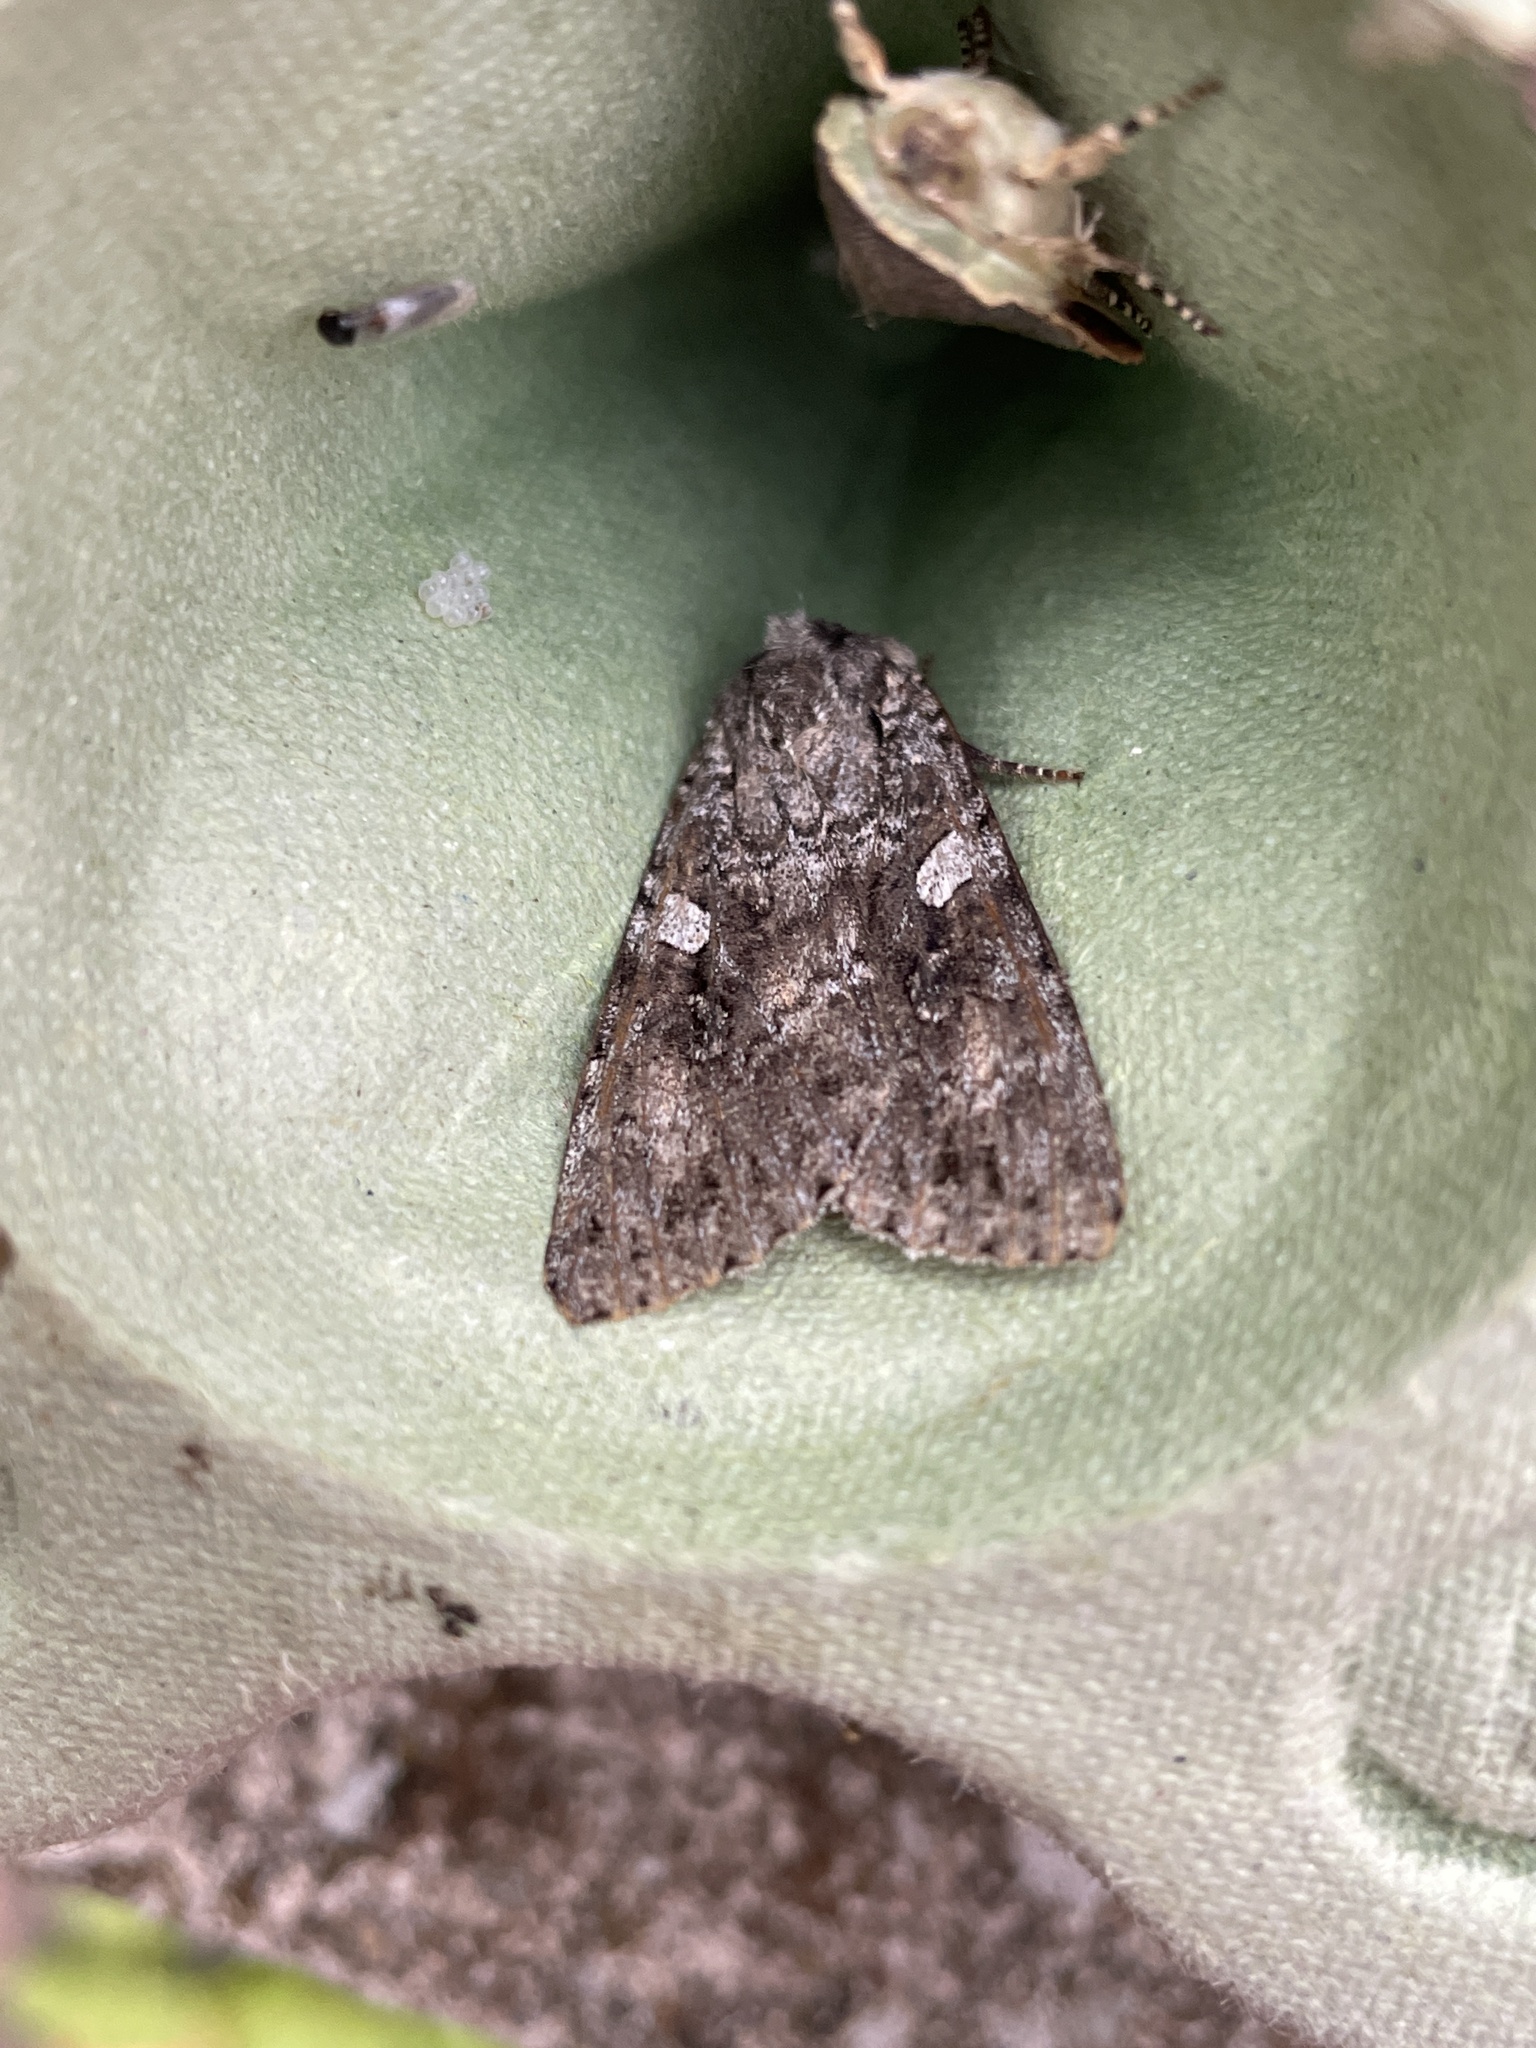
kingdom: Animalia
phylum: Arthropoda
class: Insecta
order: Lepidoptera
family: Noctuidae
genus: Eurois
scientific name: Eurois occulta
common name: Great brocade
